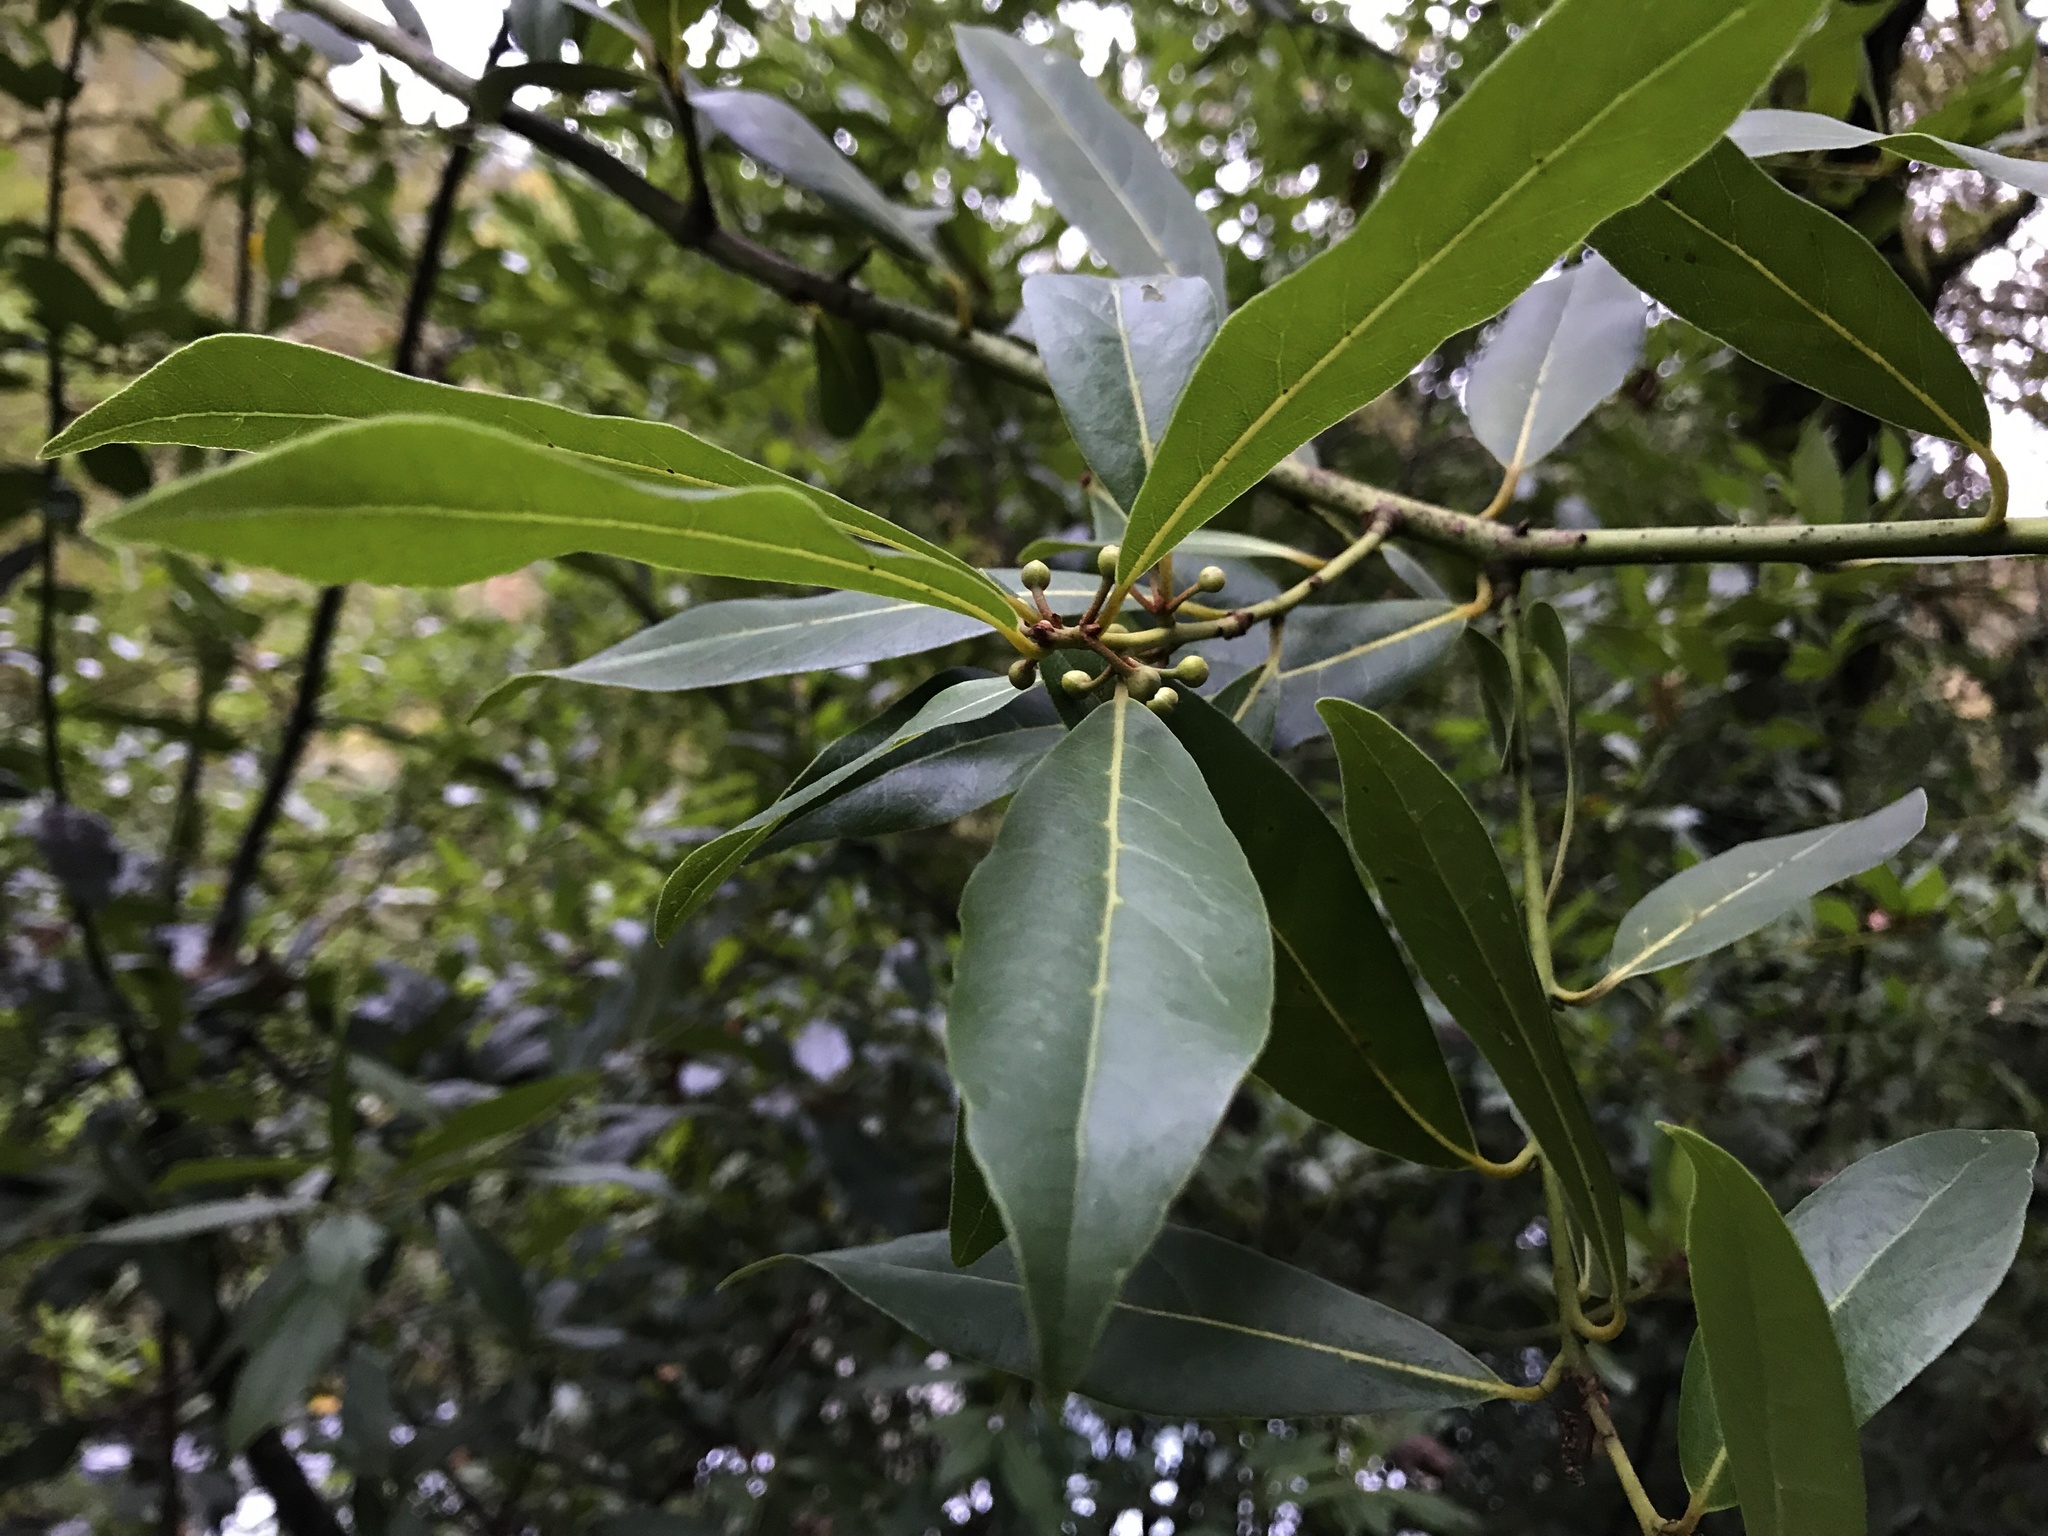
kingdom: Plantae
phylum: Tracheophyta
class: Magnoliopsida
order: Laurales
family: Lauraceae
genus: Laurus
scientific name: Laurus nobilis
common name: Bay
